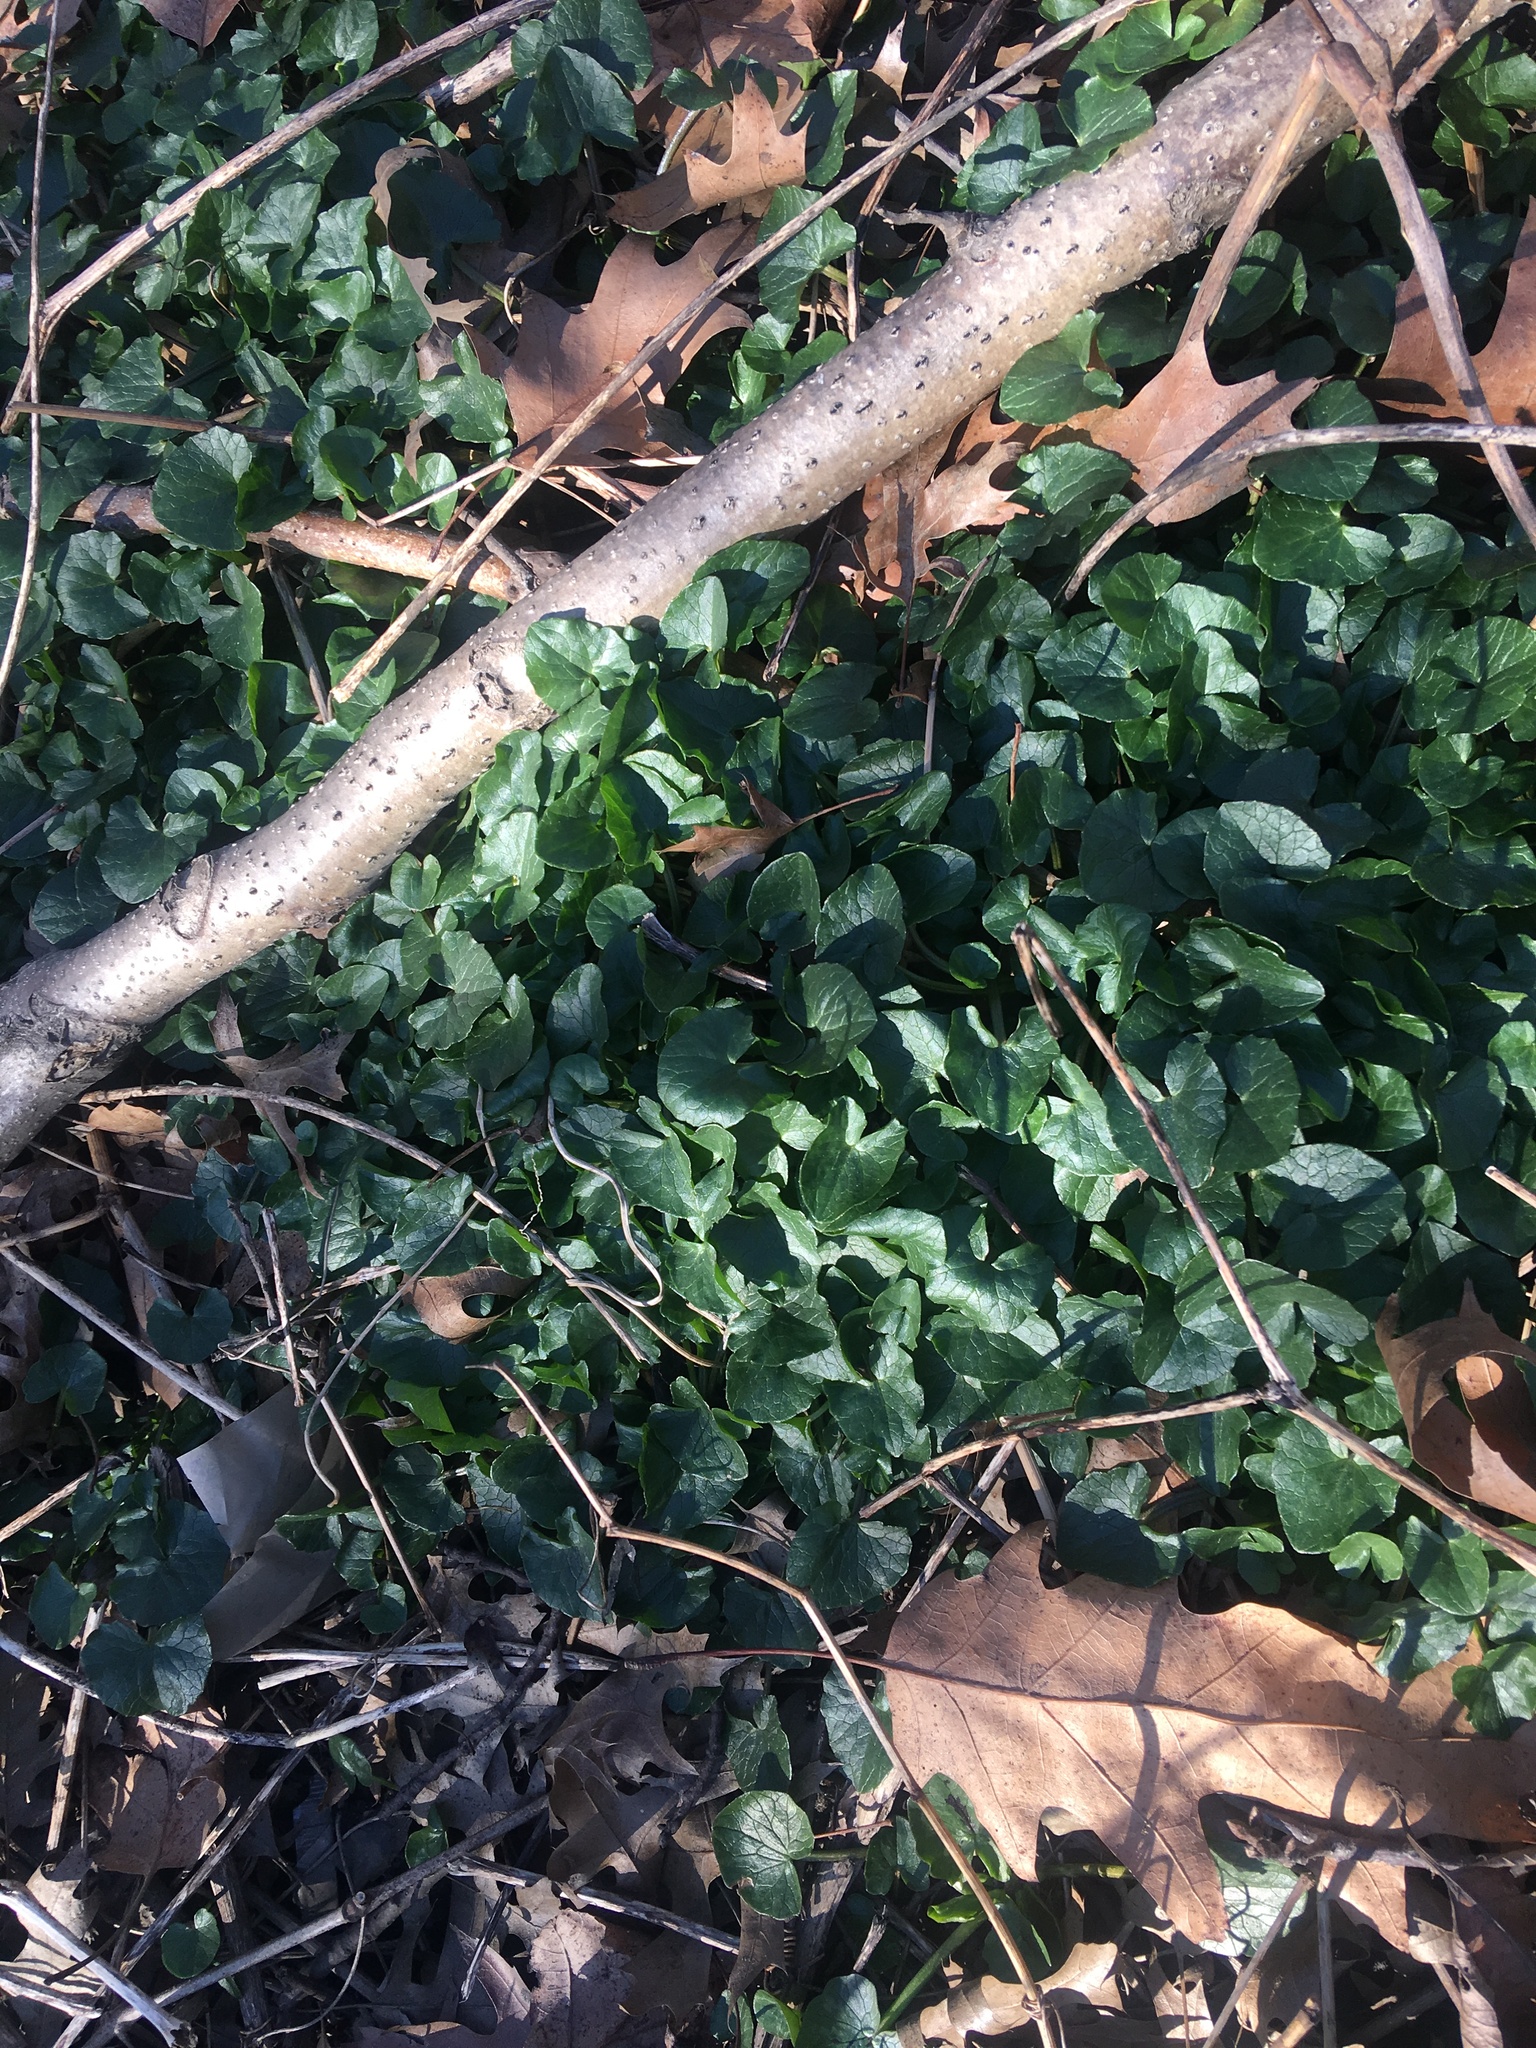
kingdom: Plantae
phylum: Tracheophyta
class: Magnoliopsida
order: Ranunculales
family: Ranunculaceae
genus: Ficaria
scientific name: Ficaria verna
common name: Lesser celandine
